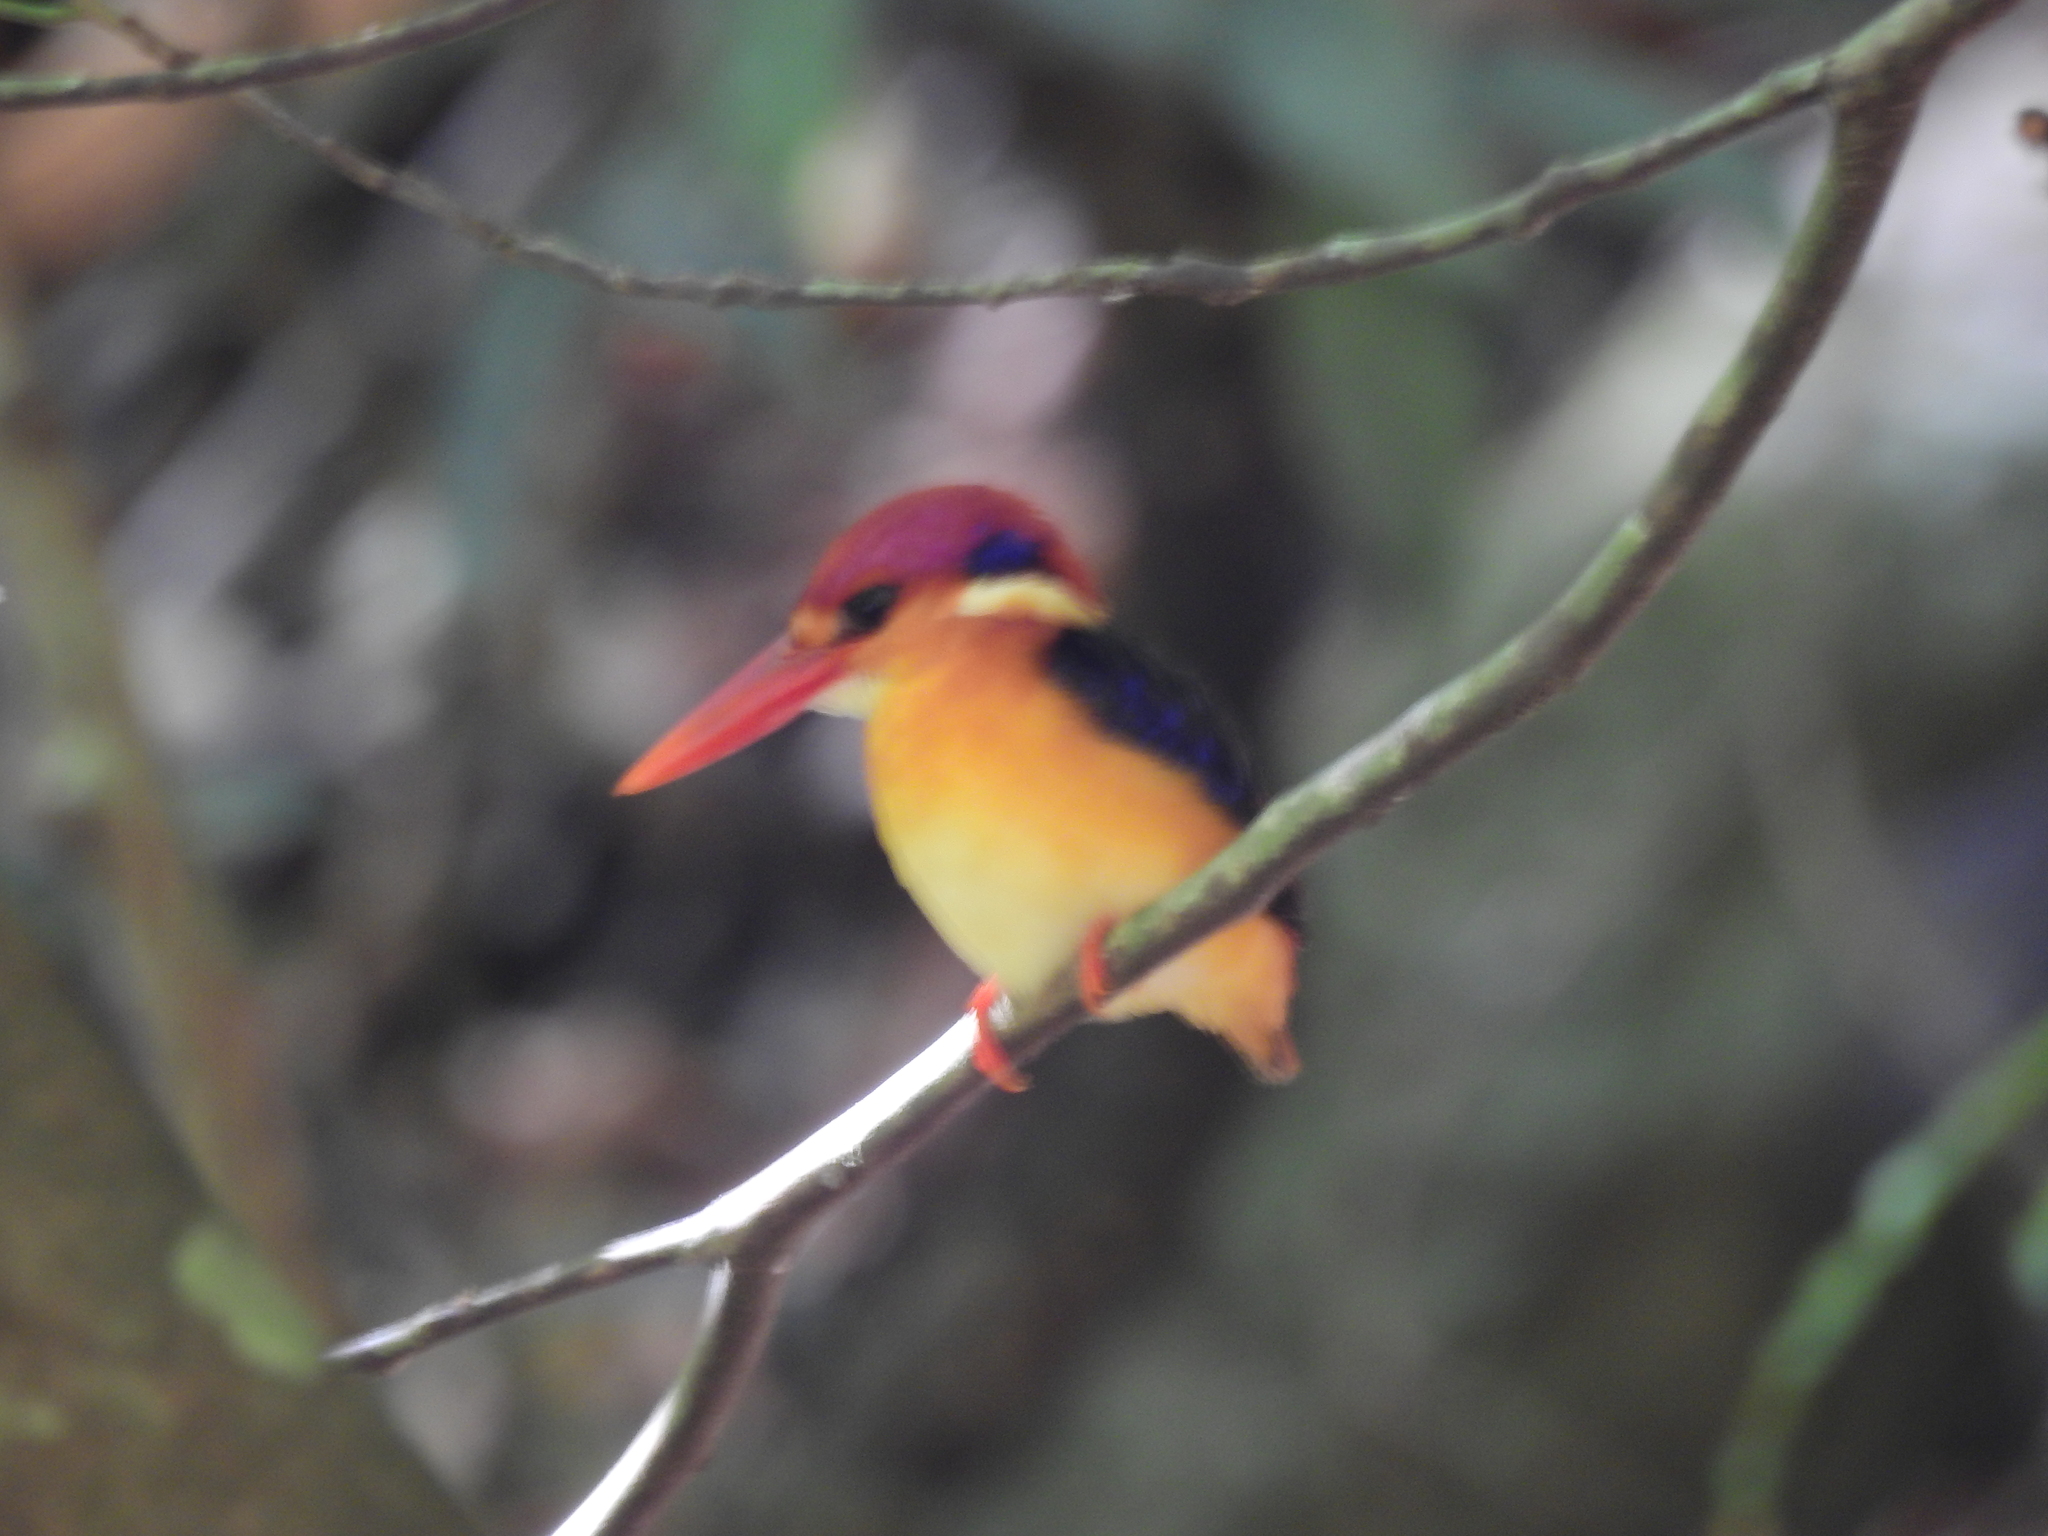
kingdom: Animalia
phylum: Chordata
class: Aves
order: Coraciiformes
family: Alcedinidae
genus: Ceyx
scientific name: Ceyx erithaca
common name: Oriental dwarf kingfisher
